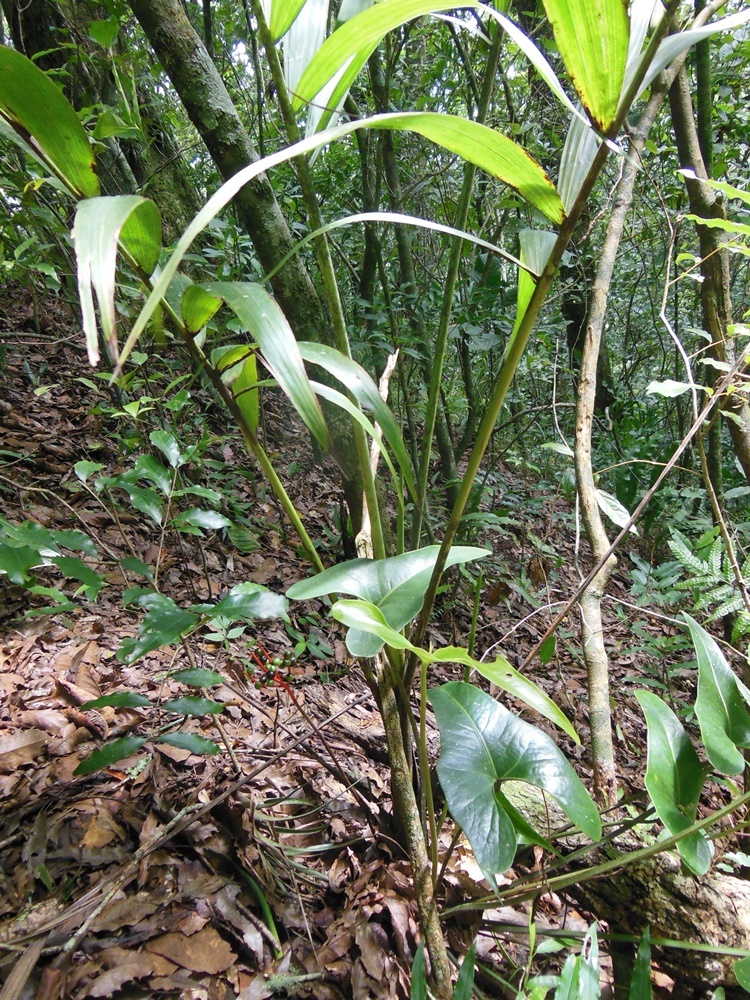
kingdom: Plantae
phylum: Tracheophyta
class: Liliopsida
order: Arecales
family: Arecaceae
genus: Chamaedorea
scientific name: Chamaedorea carchensis
